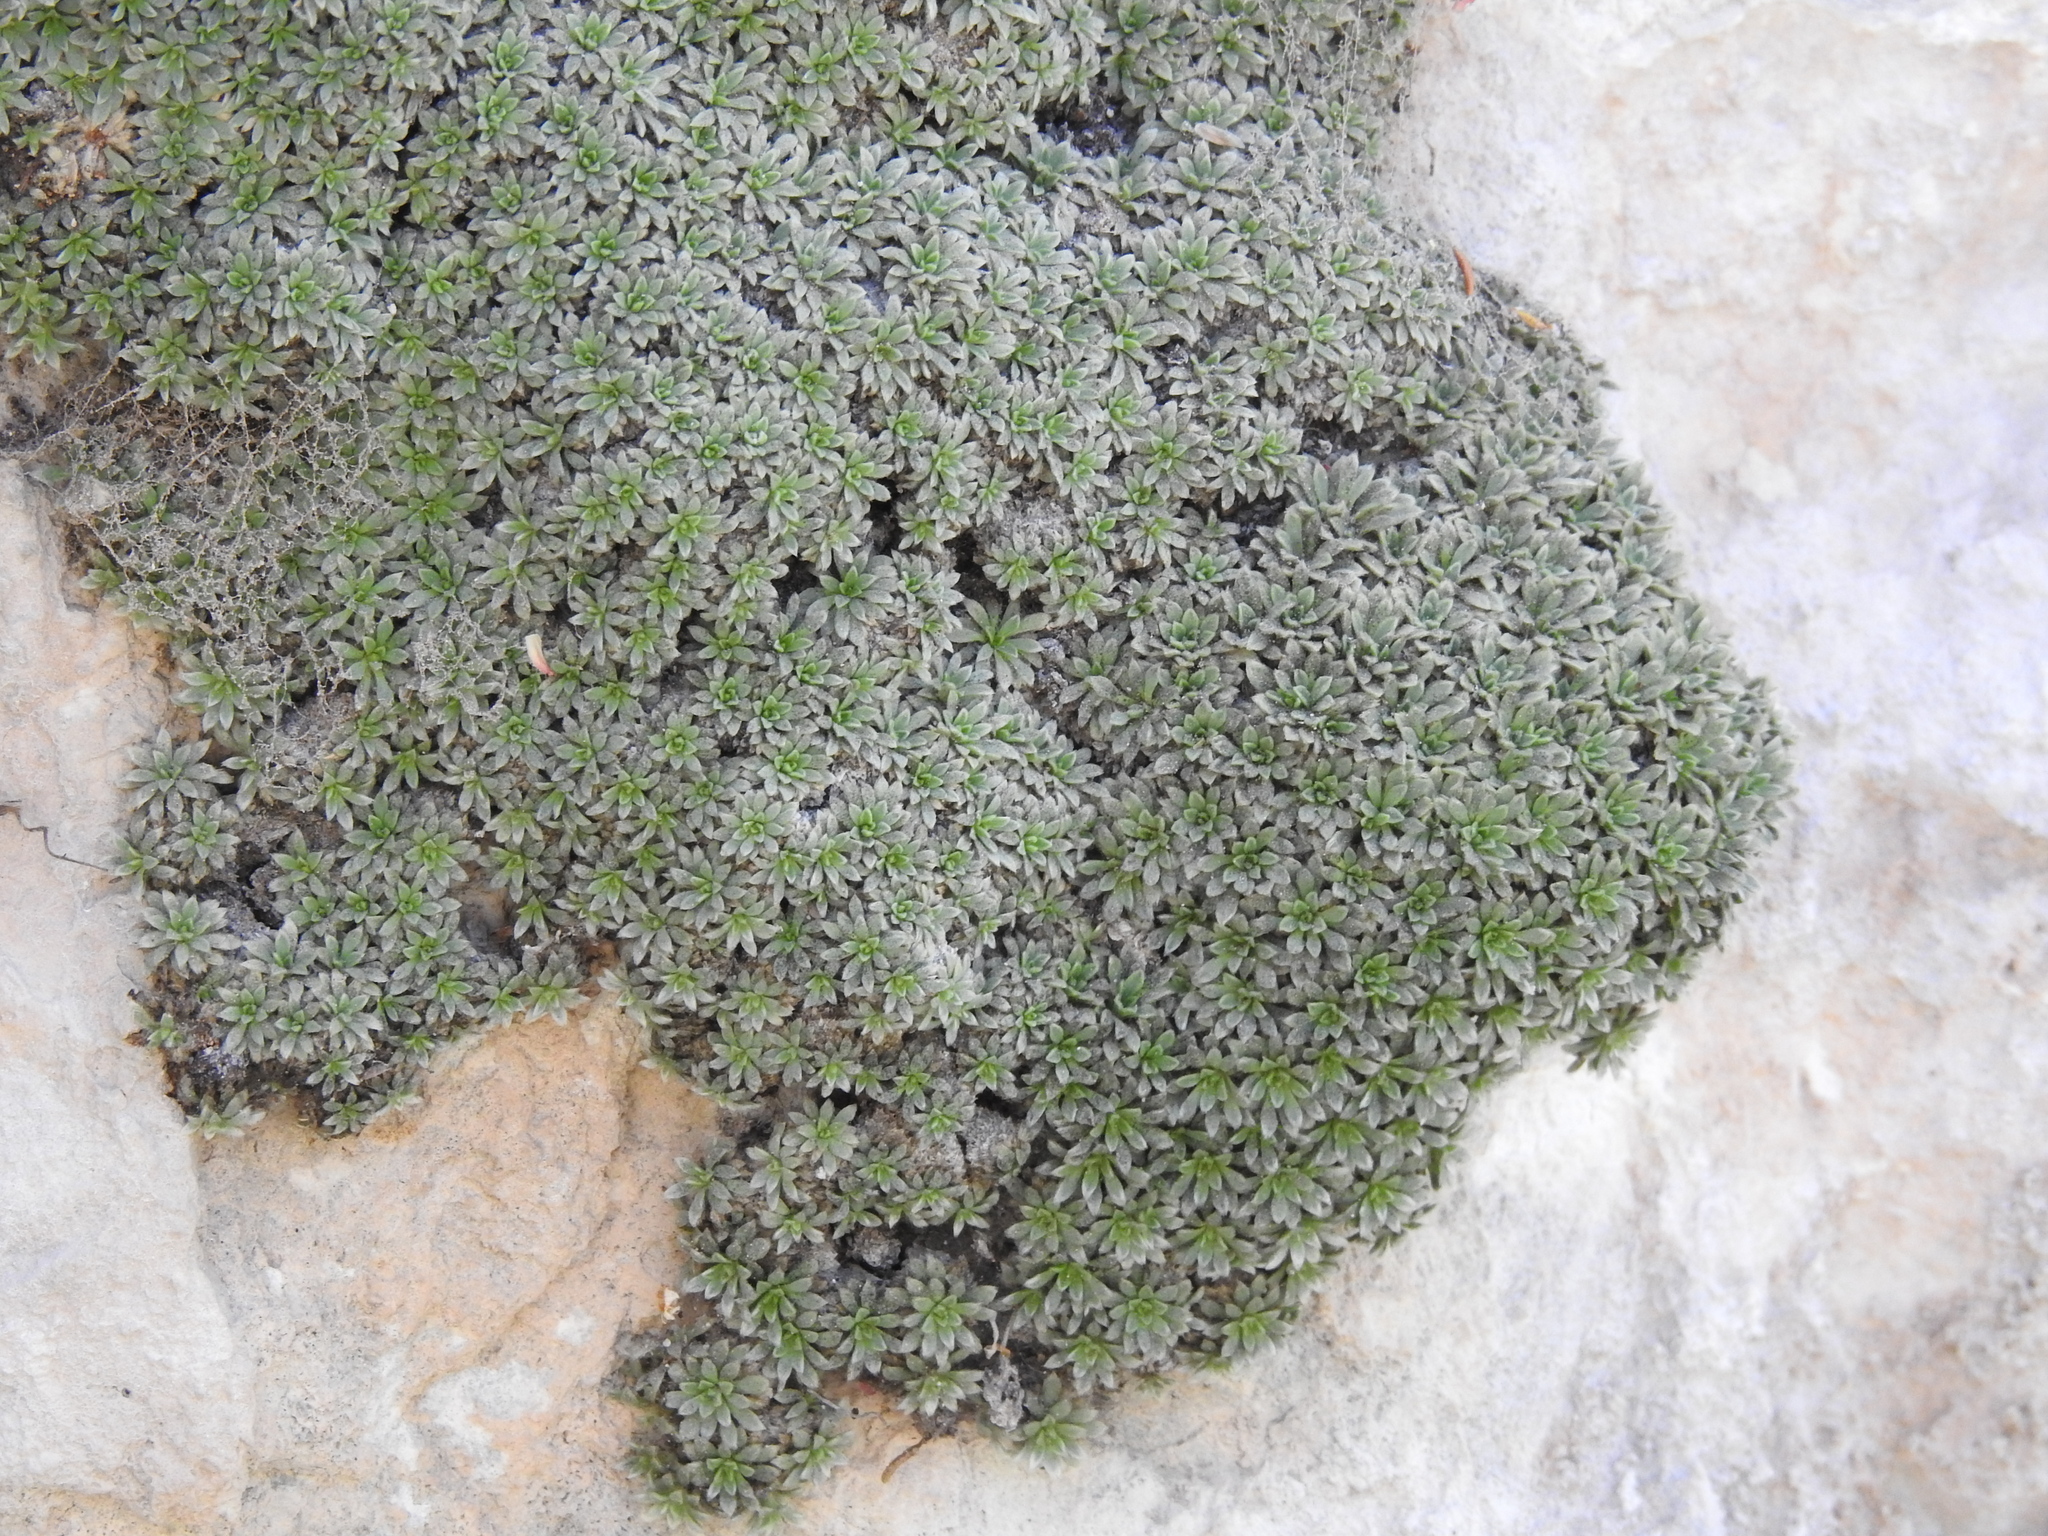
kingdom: Plantae
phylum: Tracheophyta
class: Magnoliopsida
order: Rosales
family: Rosaceae
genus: Petrophytum
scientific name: Petrophytum caespitosum
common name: Mat rockspirea
